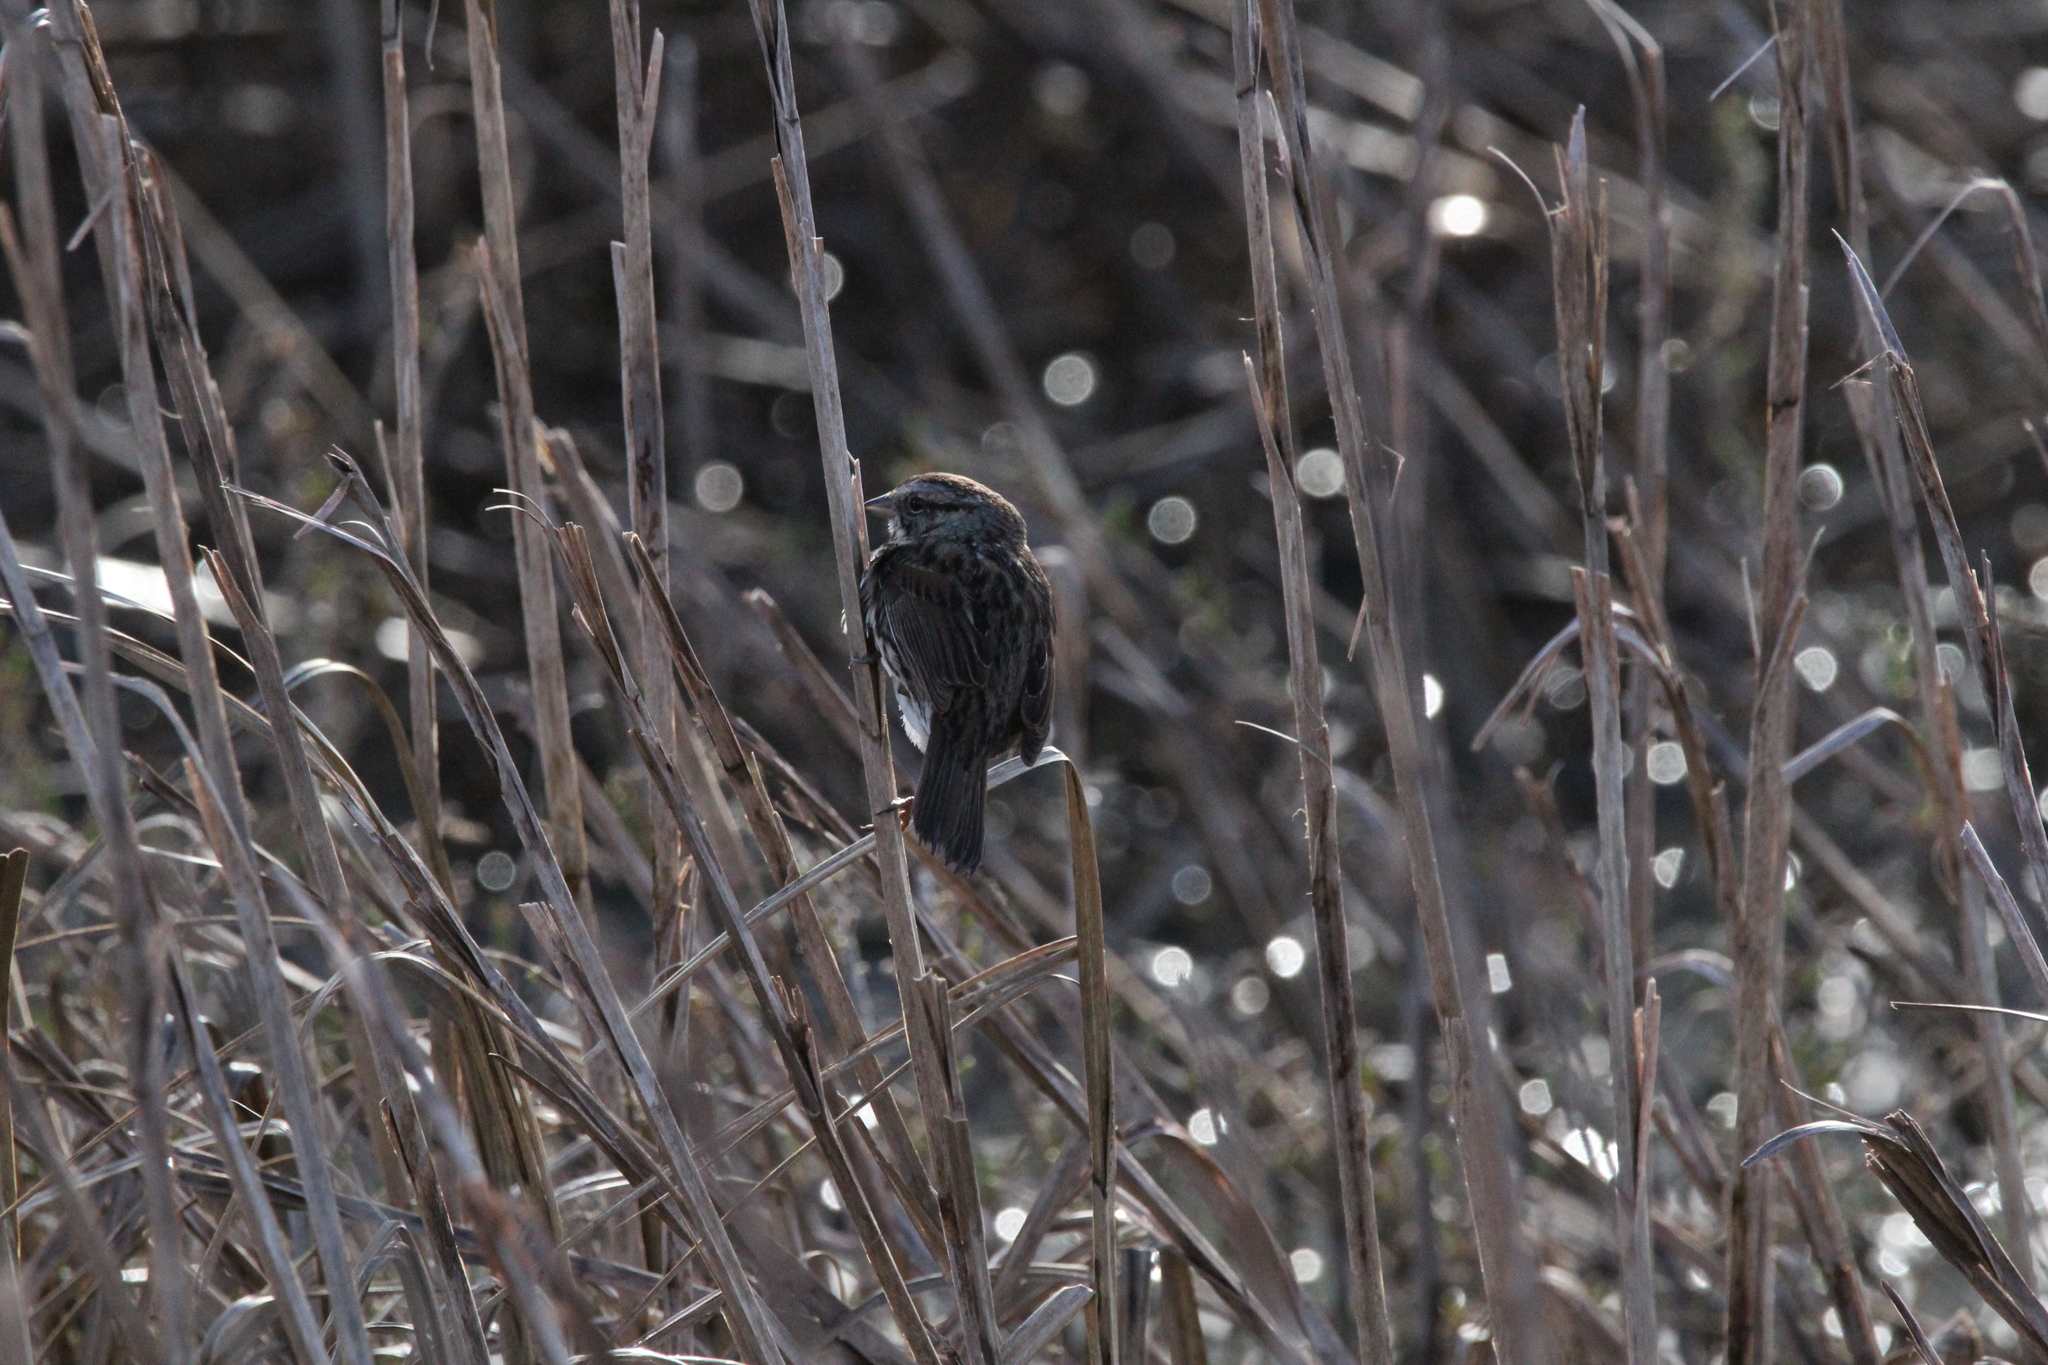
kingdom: Animalia
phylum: Chordata
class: Aves
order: Passeriformes
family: Passerellidae
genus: Melospiza
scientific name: Melospiza melodia
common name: Song sparrow
